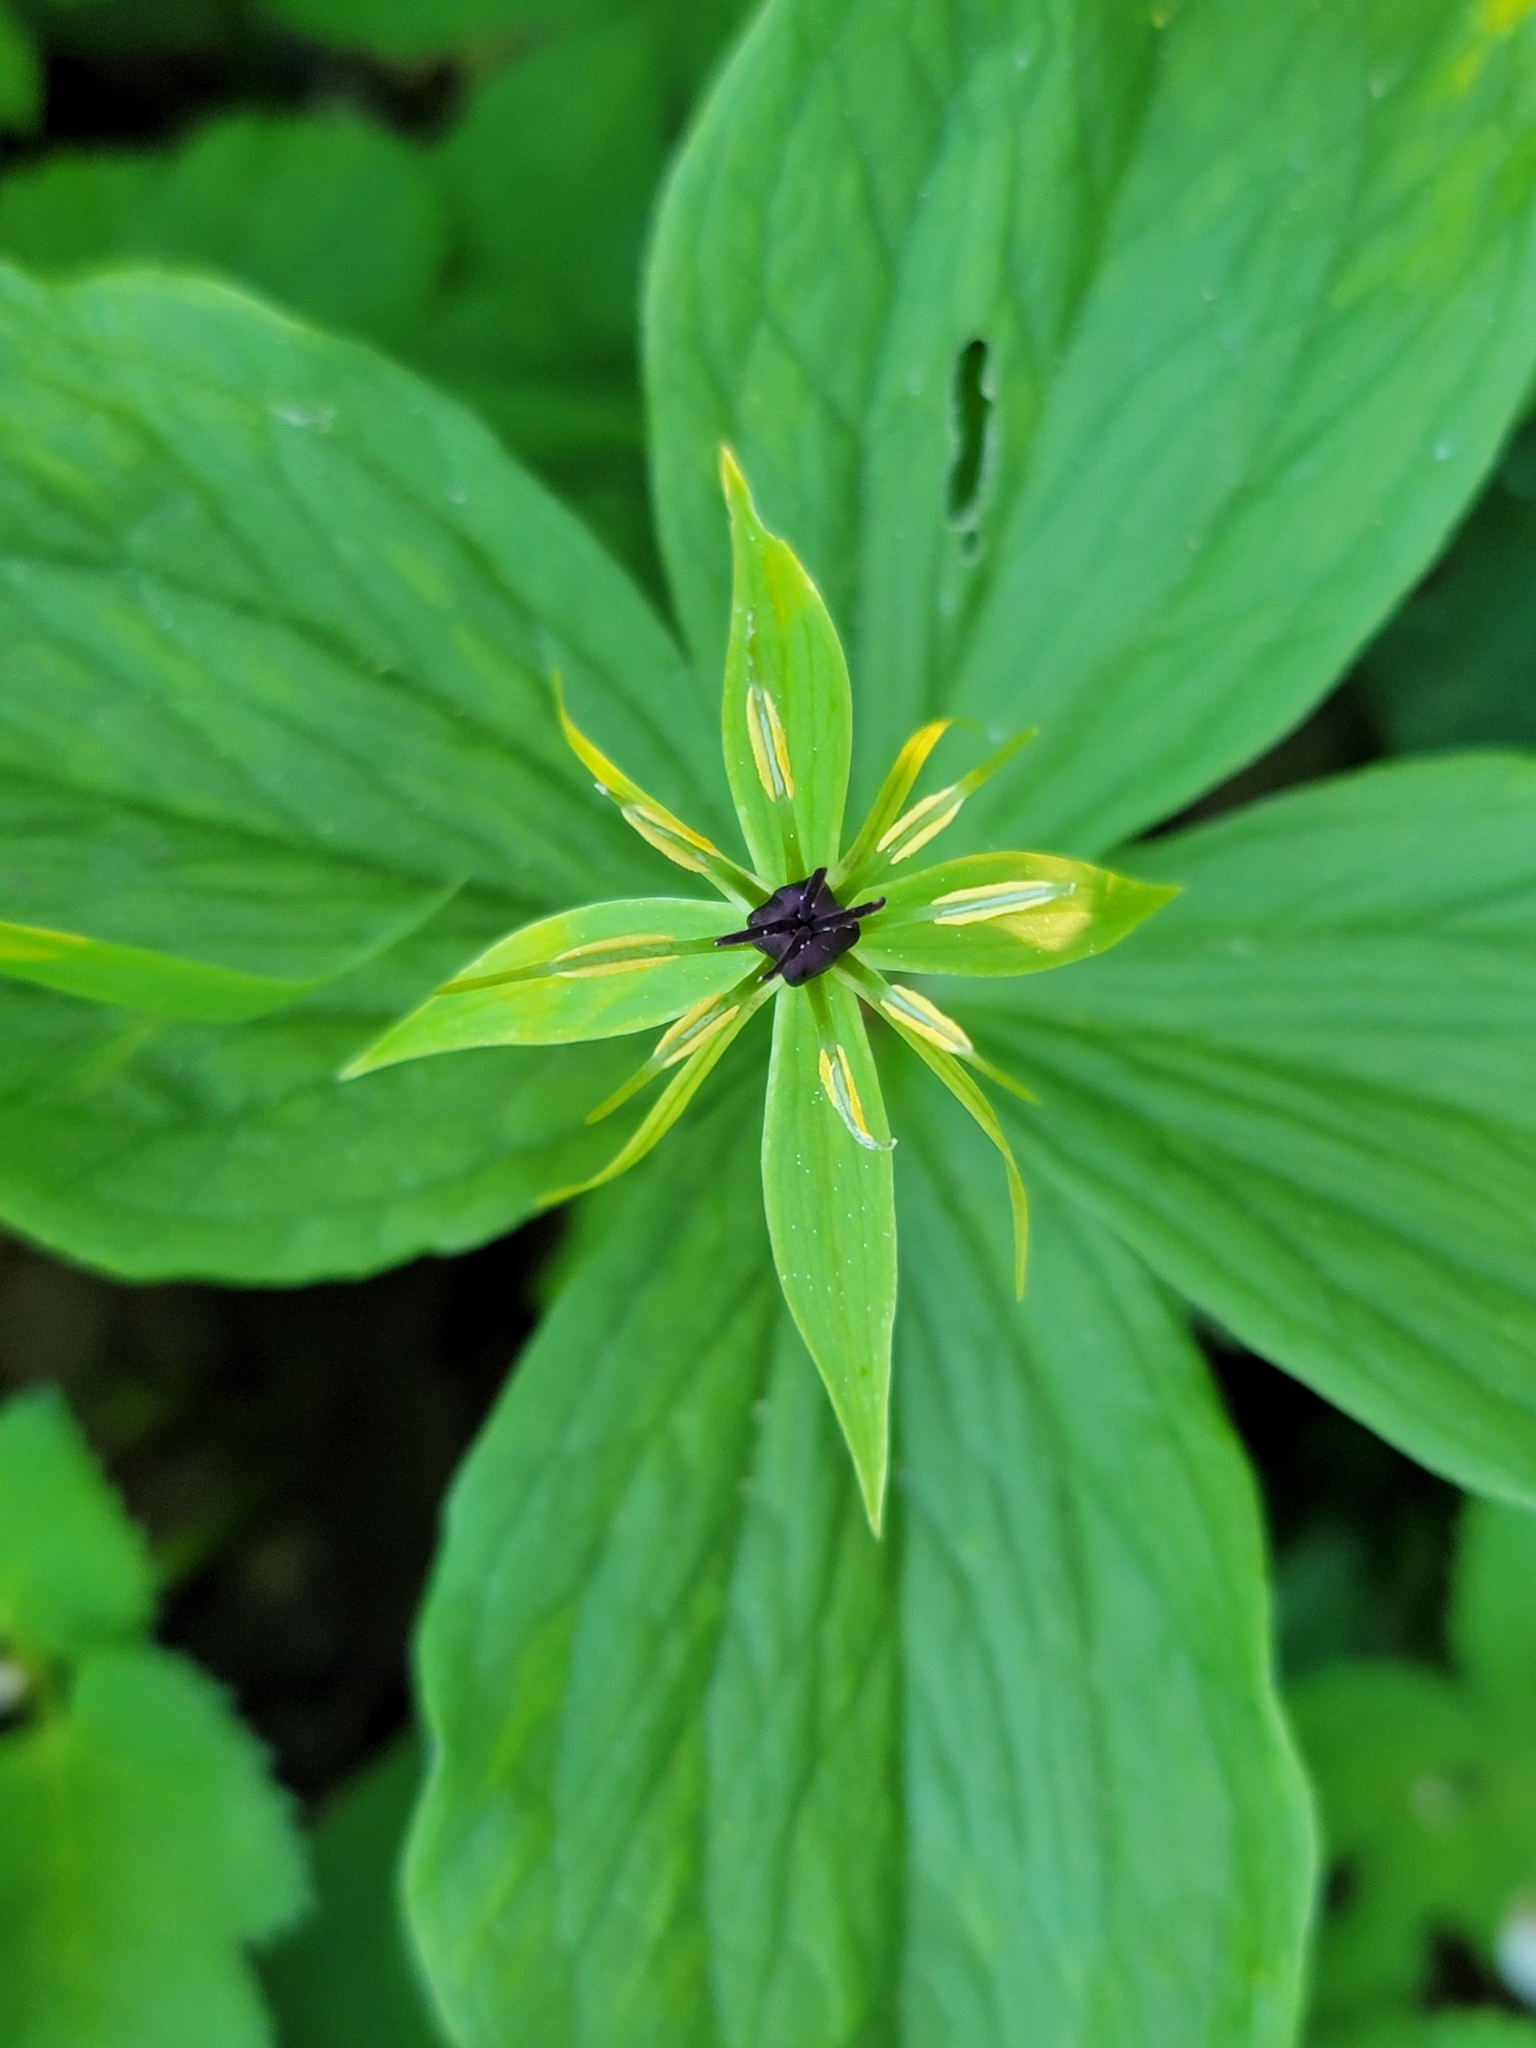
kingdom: Plantae
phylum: Tracheophyta
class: Liliopsida
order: Liliales
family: Melanthiaceae
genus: Paris
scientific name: Paris quadrifolia
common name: Herb-paris
